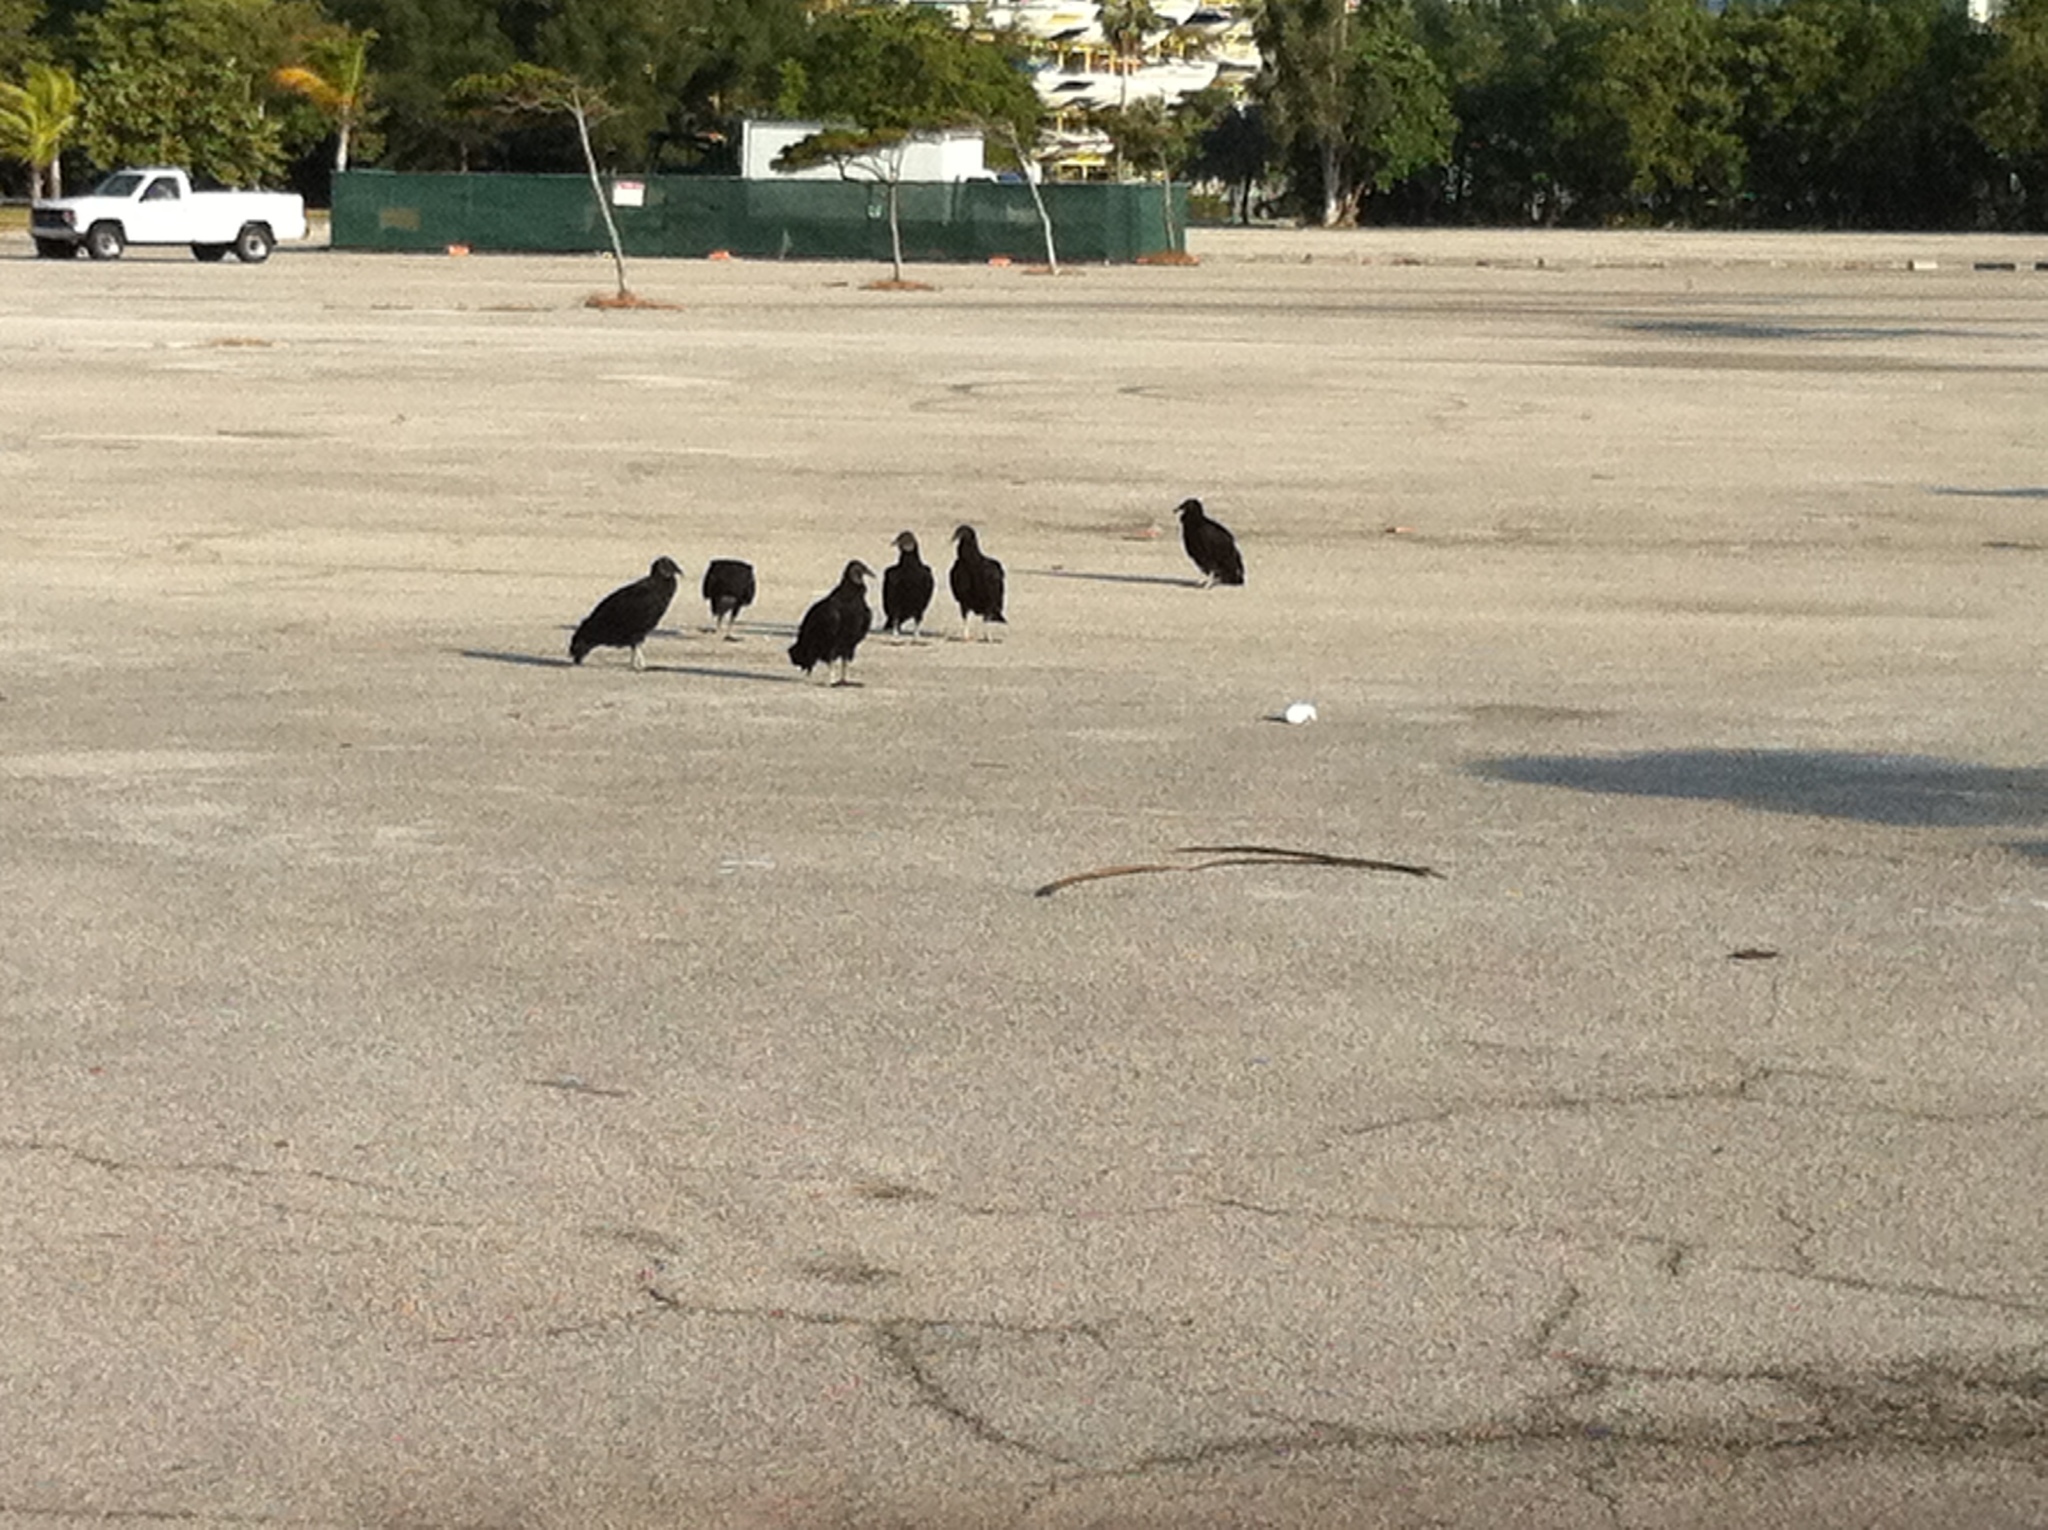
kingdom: Animalia
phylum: Chordata
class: Aves
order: Accipitriformes
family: Cathartidae
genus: Coragyps
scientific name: Coragyps atratus
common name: Black vulture
